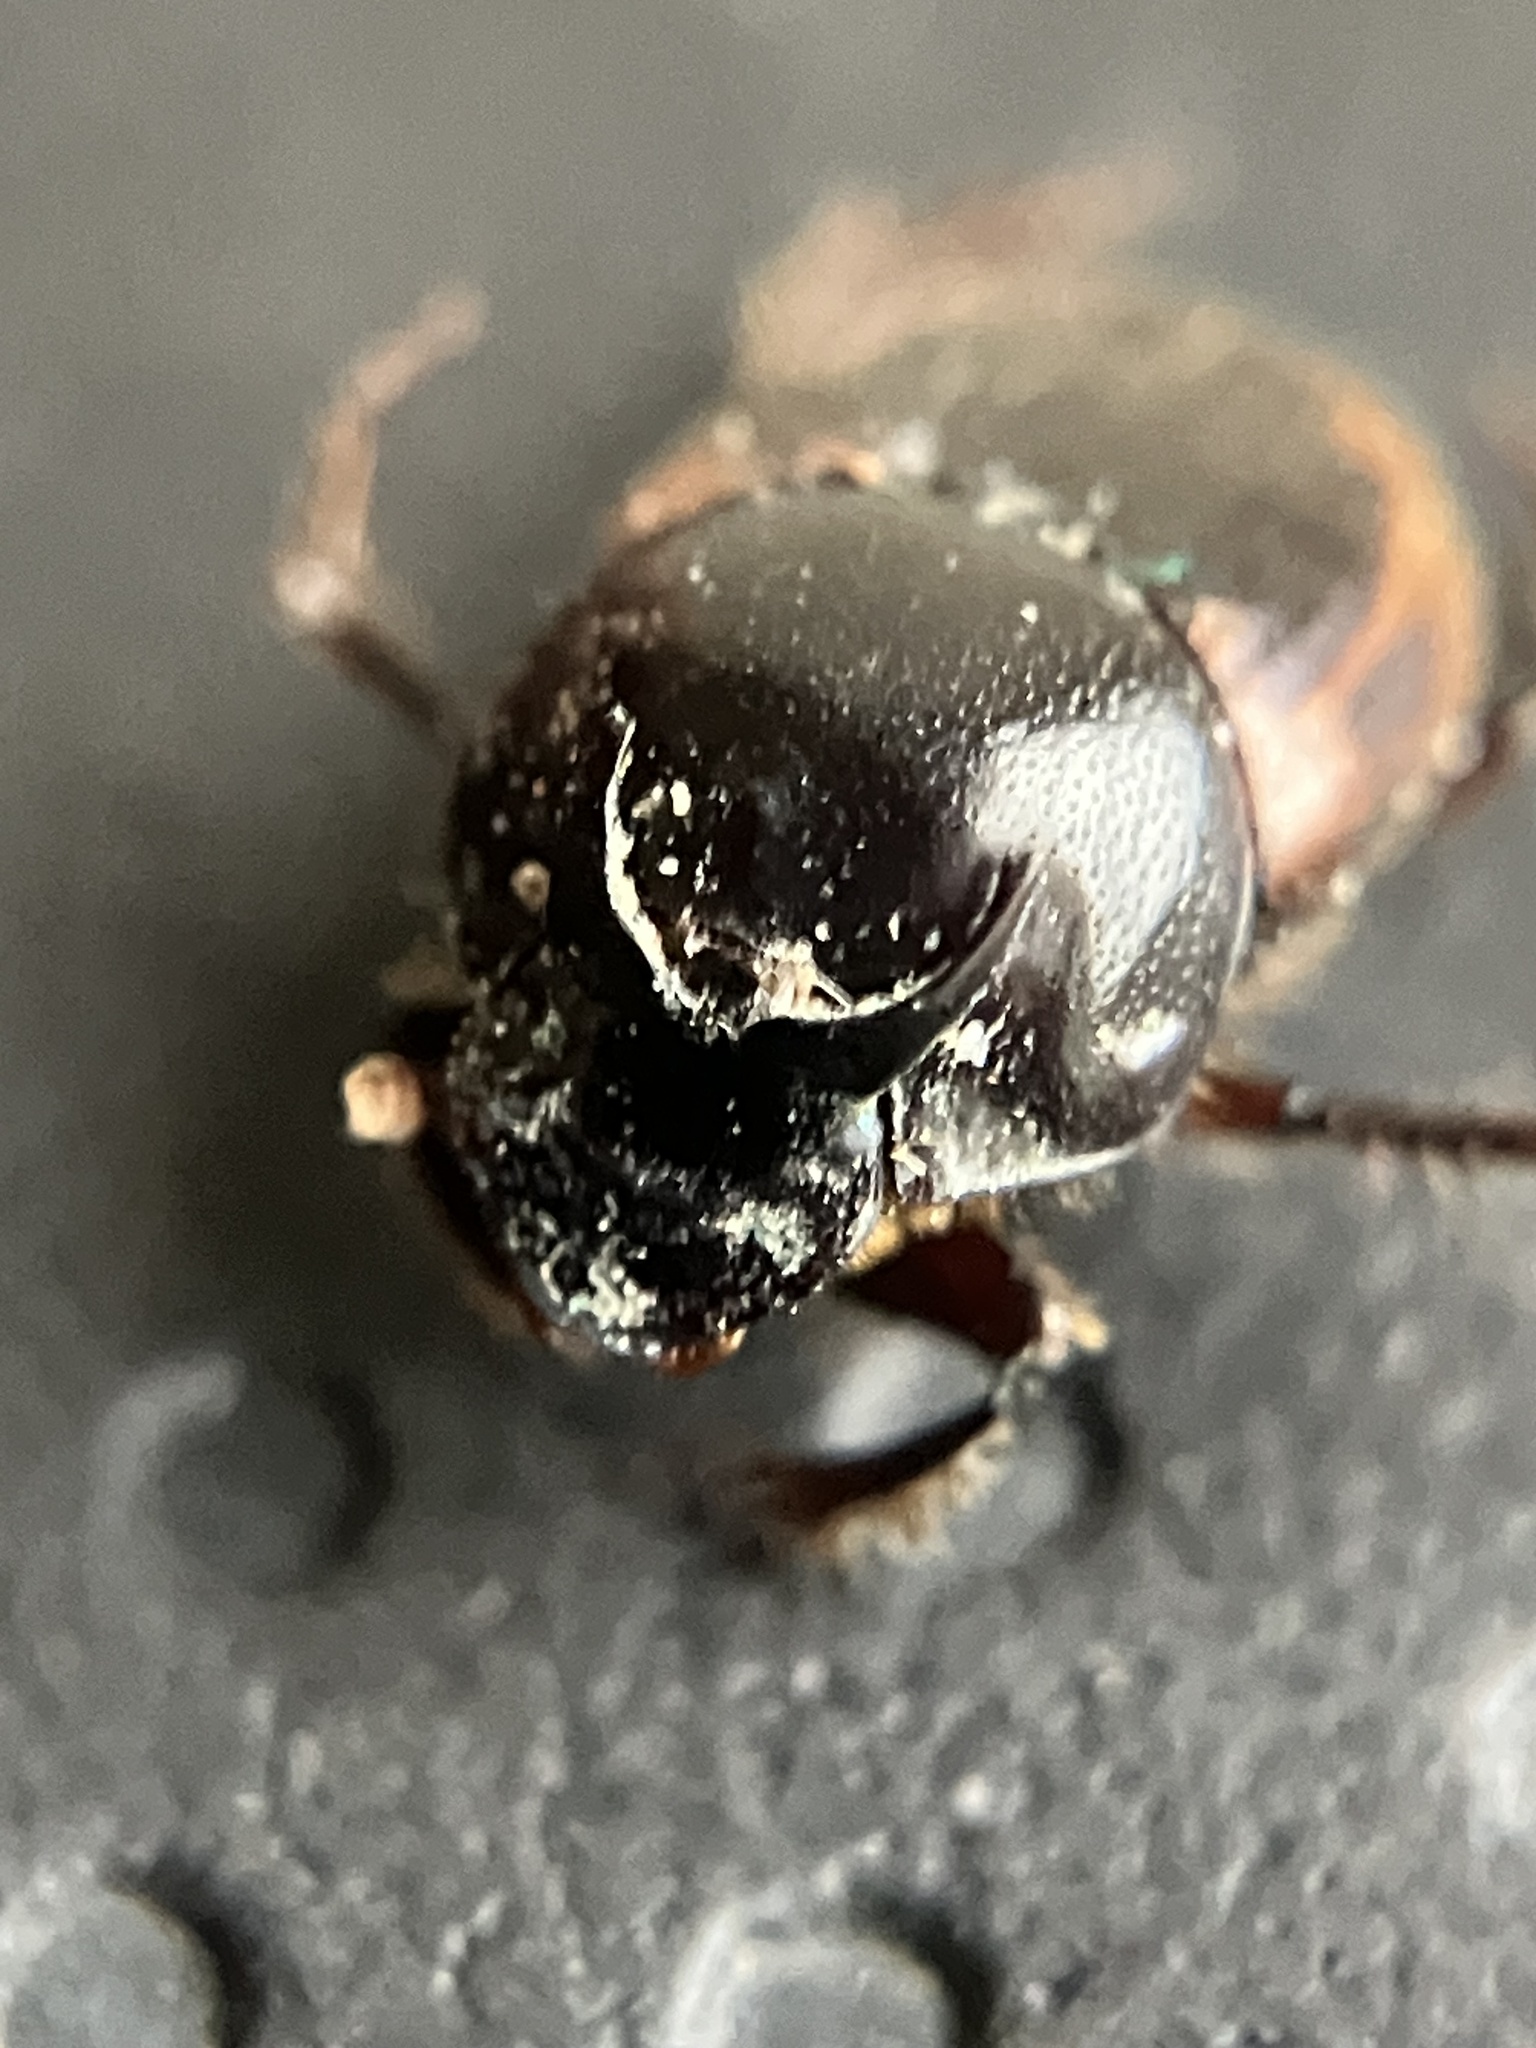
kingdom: Animalia
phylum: Arthropoda
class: Insecta
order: Coleoptera
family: Scarabaeidae
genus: Onthophagus
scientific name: Onthophagus cervus
